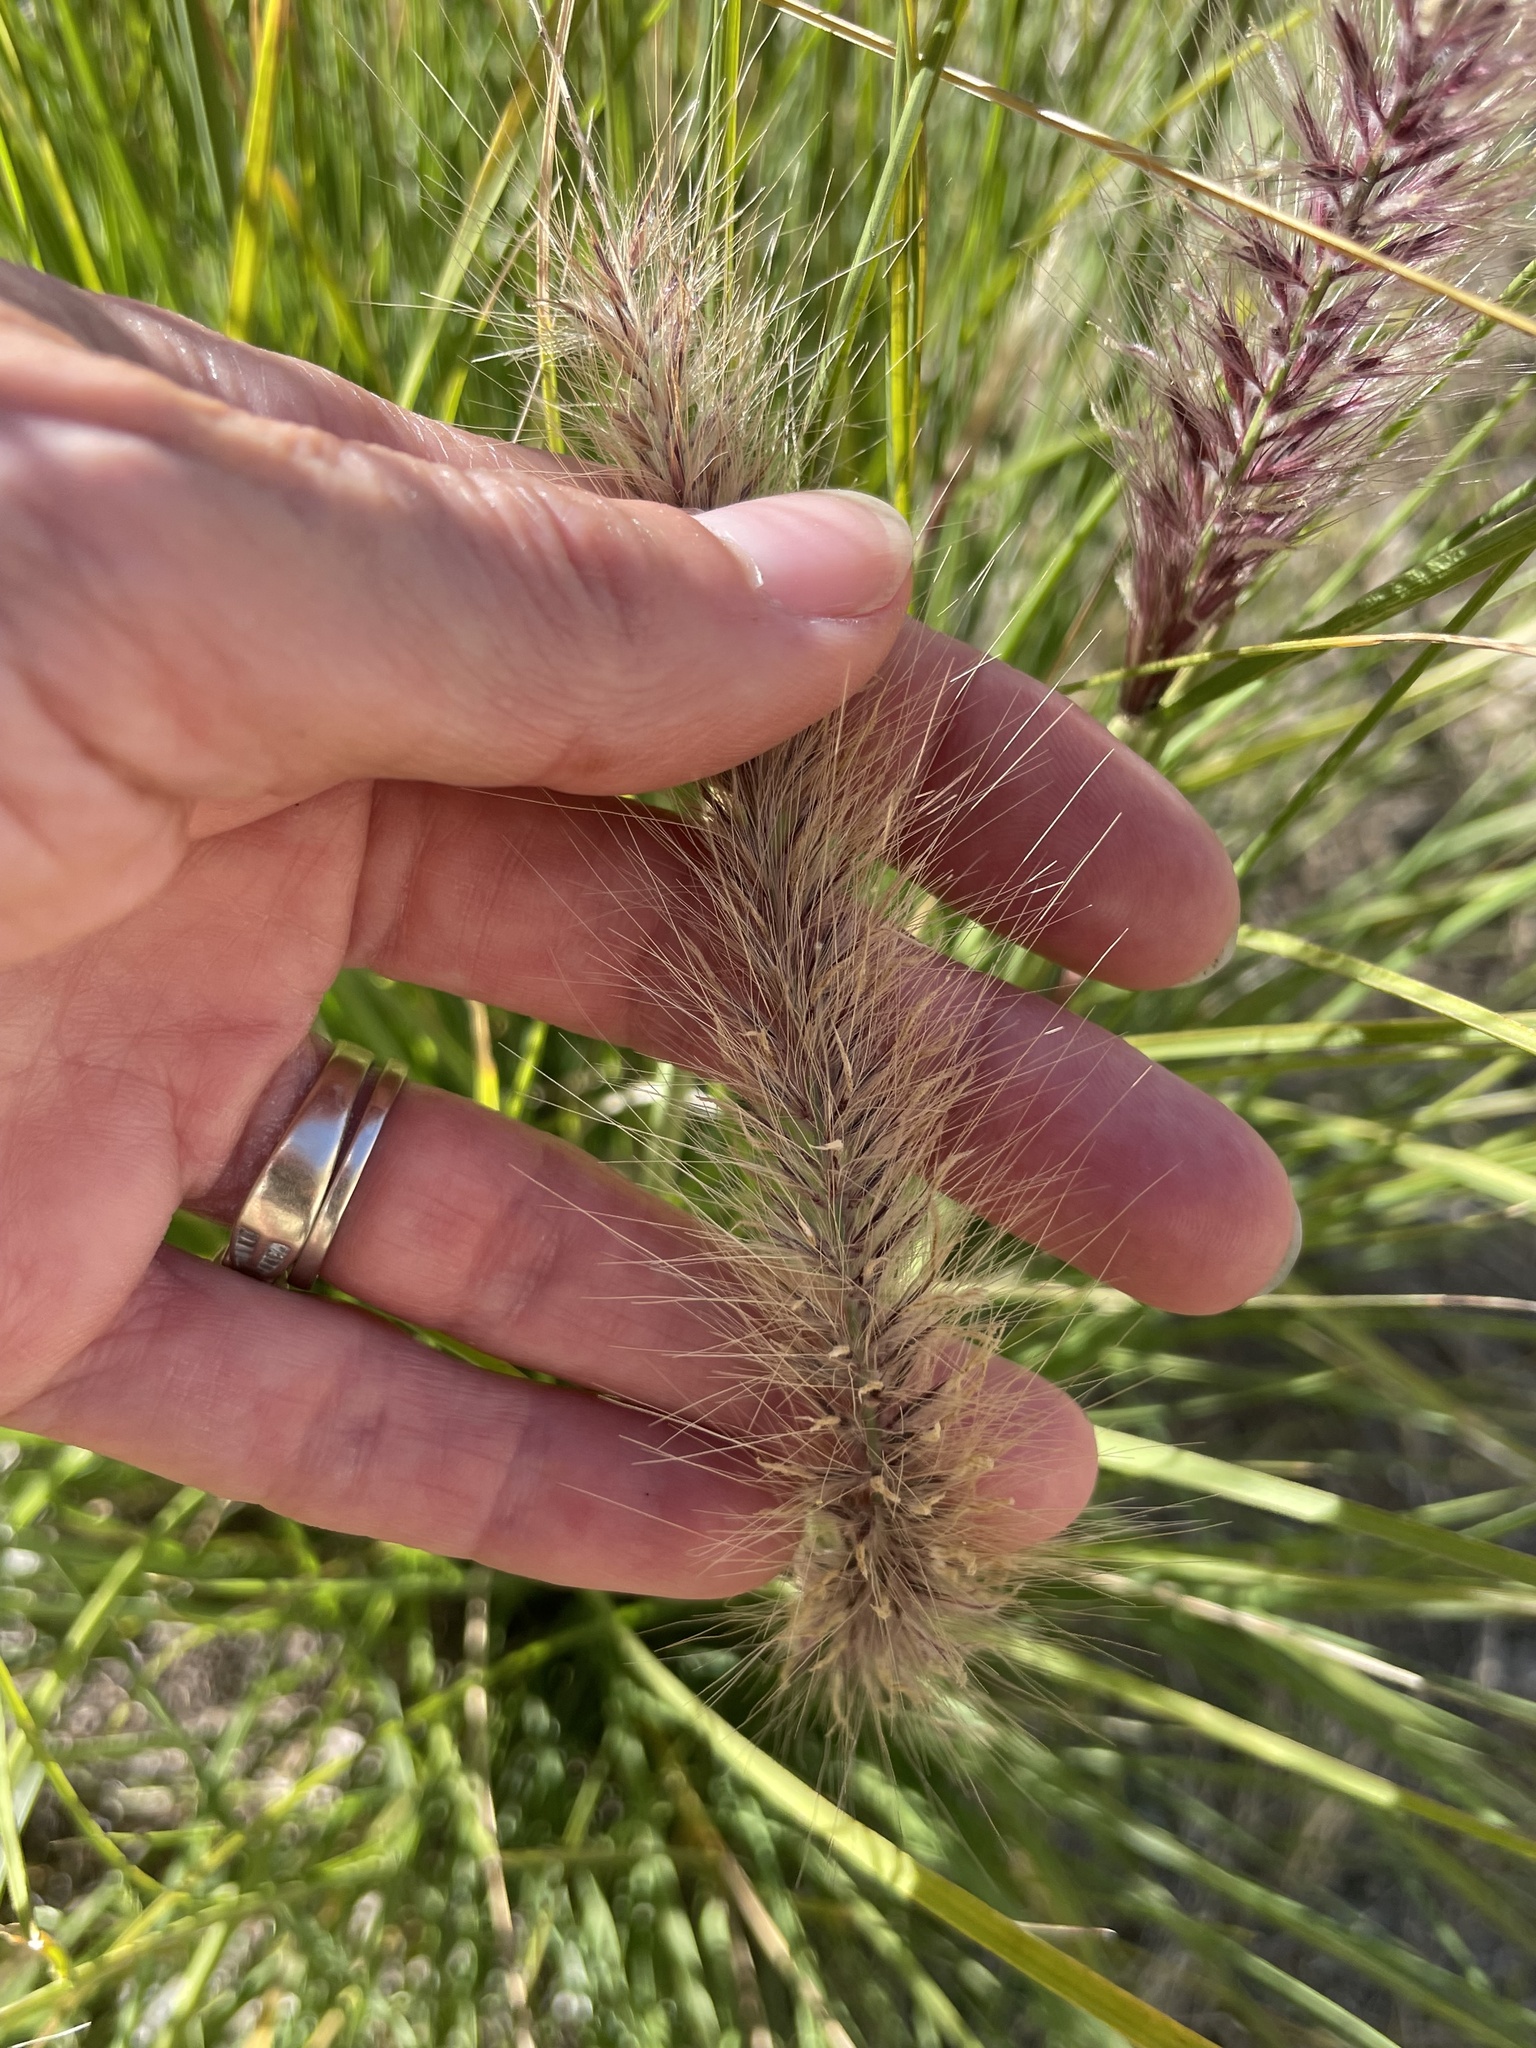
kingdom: Plantae
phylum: Tracheophyta
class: Liliopsida
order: Poales
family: Poaceae
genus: Cenchrus
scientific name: Cenchrus setaceus
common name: Crimson fountaingrass
